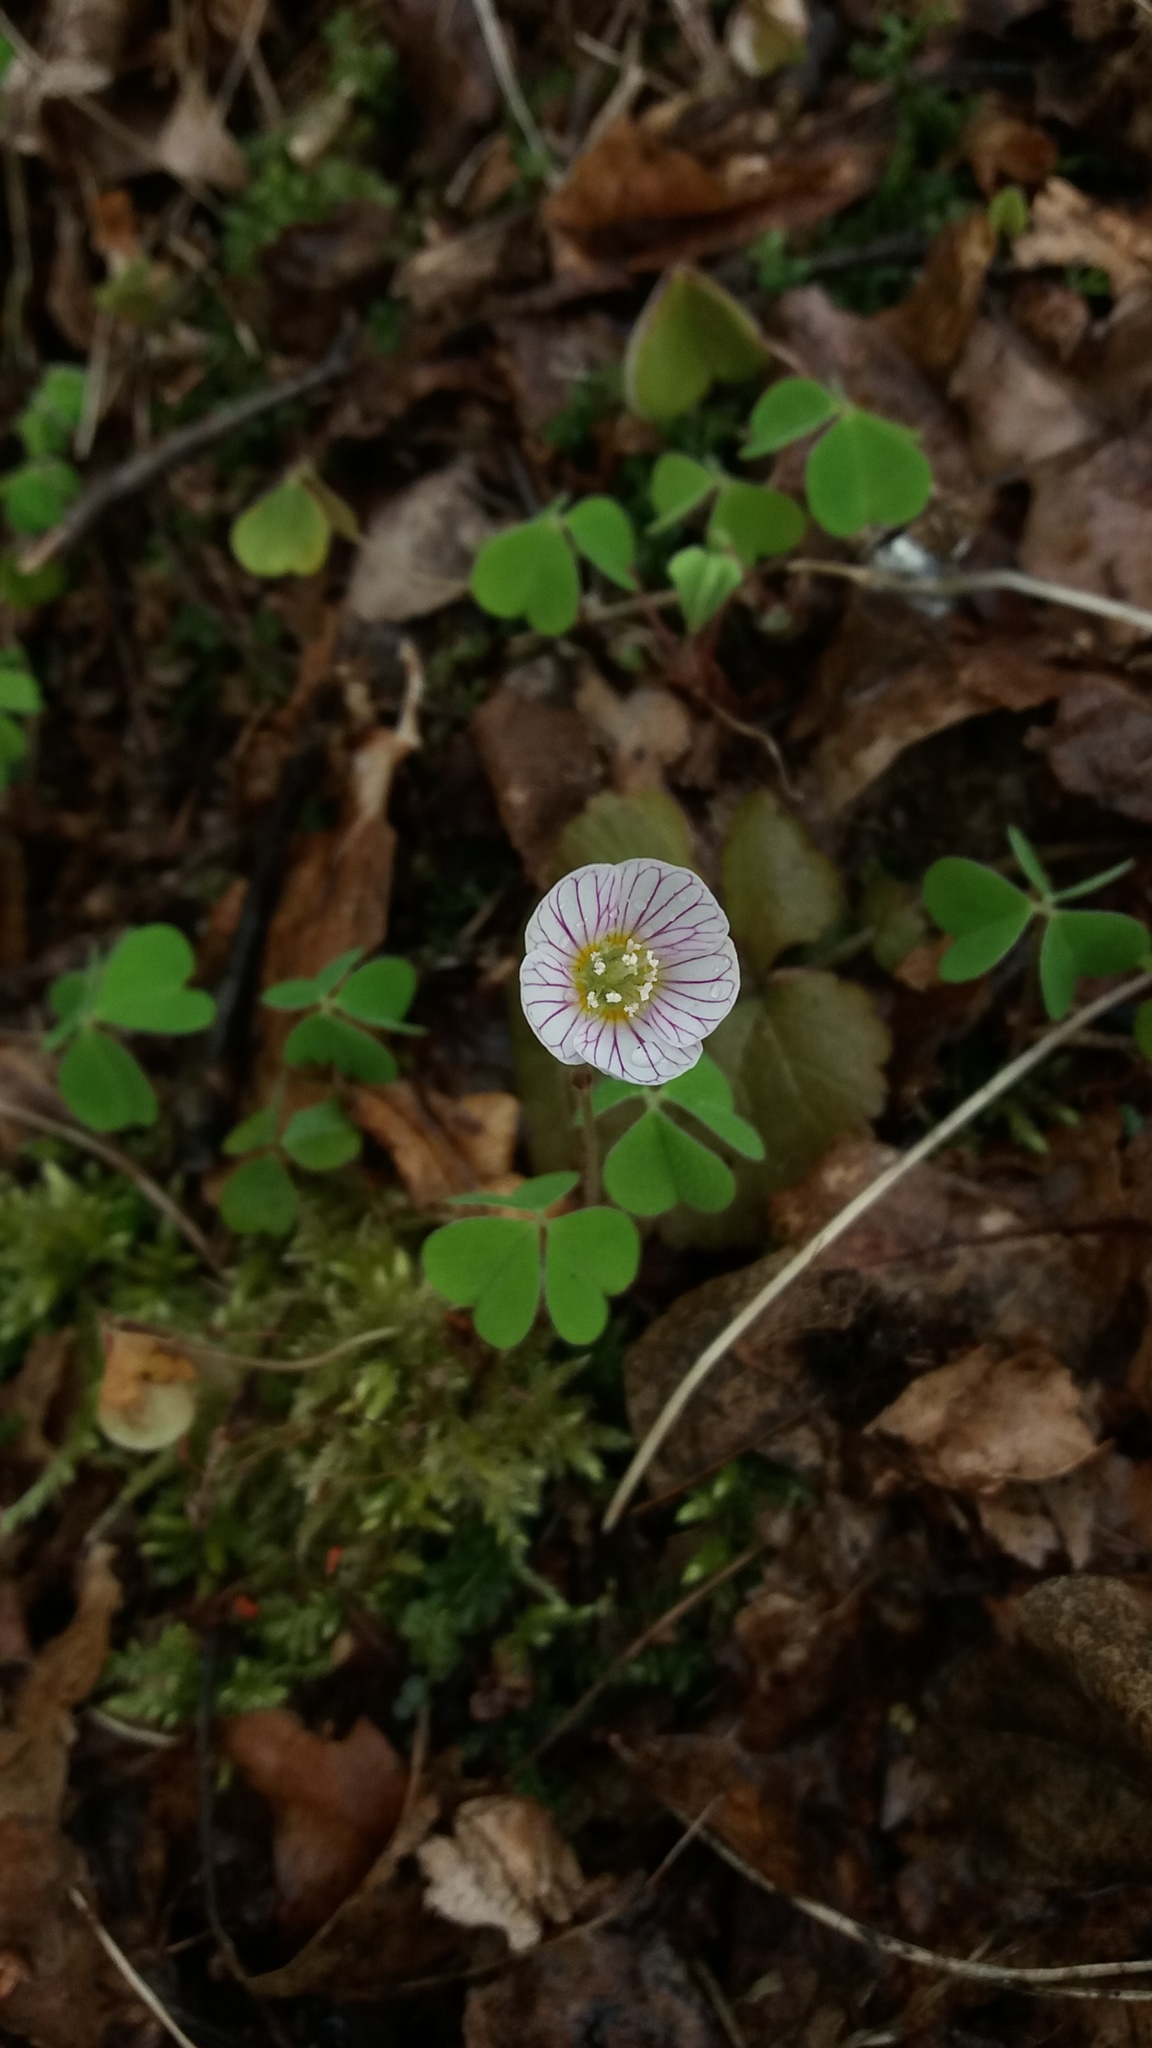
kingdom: Plantae
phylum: Tracheophyta
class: Magnoliopsida
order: Oxalidales
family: Oxalidaceae
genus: Oxalis
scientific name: Oxalis acetosella
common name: Wood-sorrel
